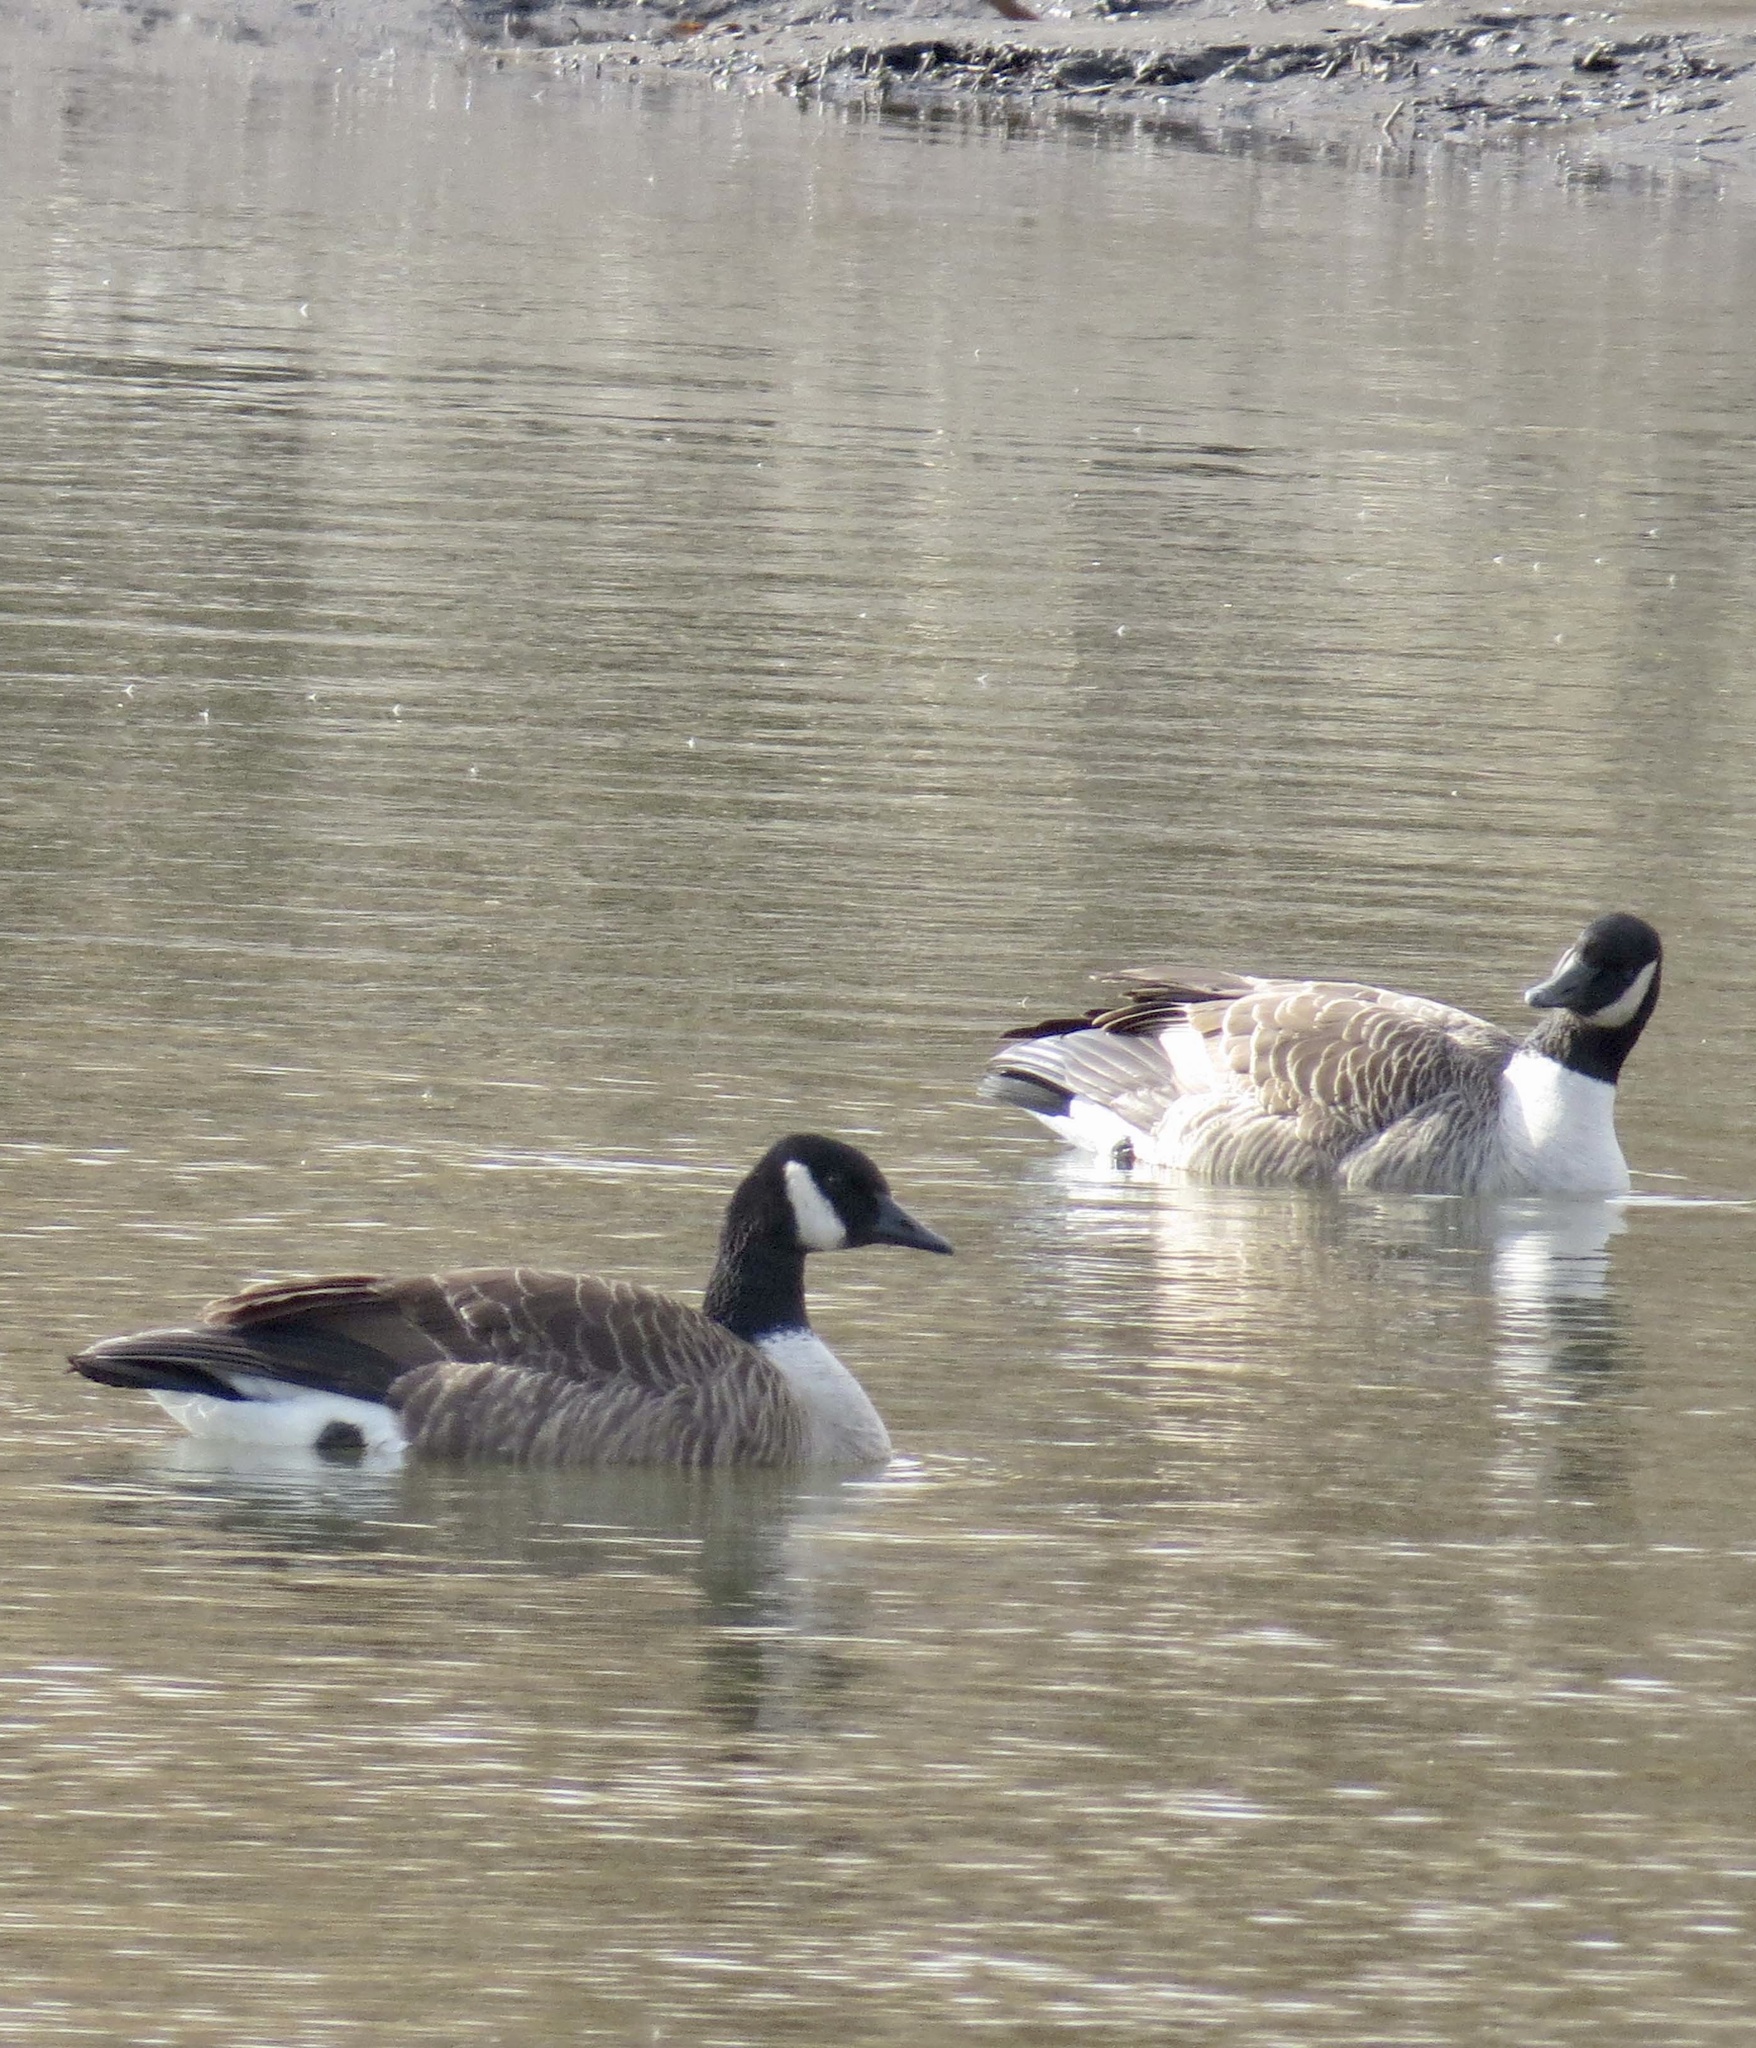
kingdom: Animalia
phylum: Chordata
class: Aves
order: Anseriformes
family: Anatidae
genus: Branta
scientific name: Branta canadensis
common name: Canada goose
